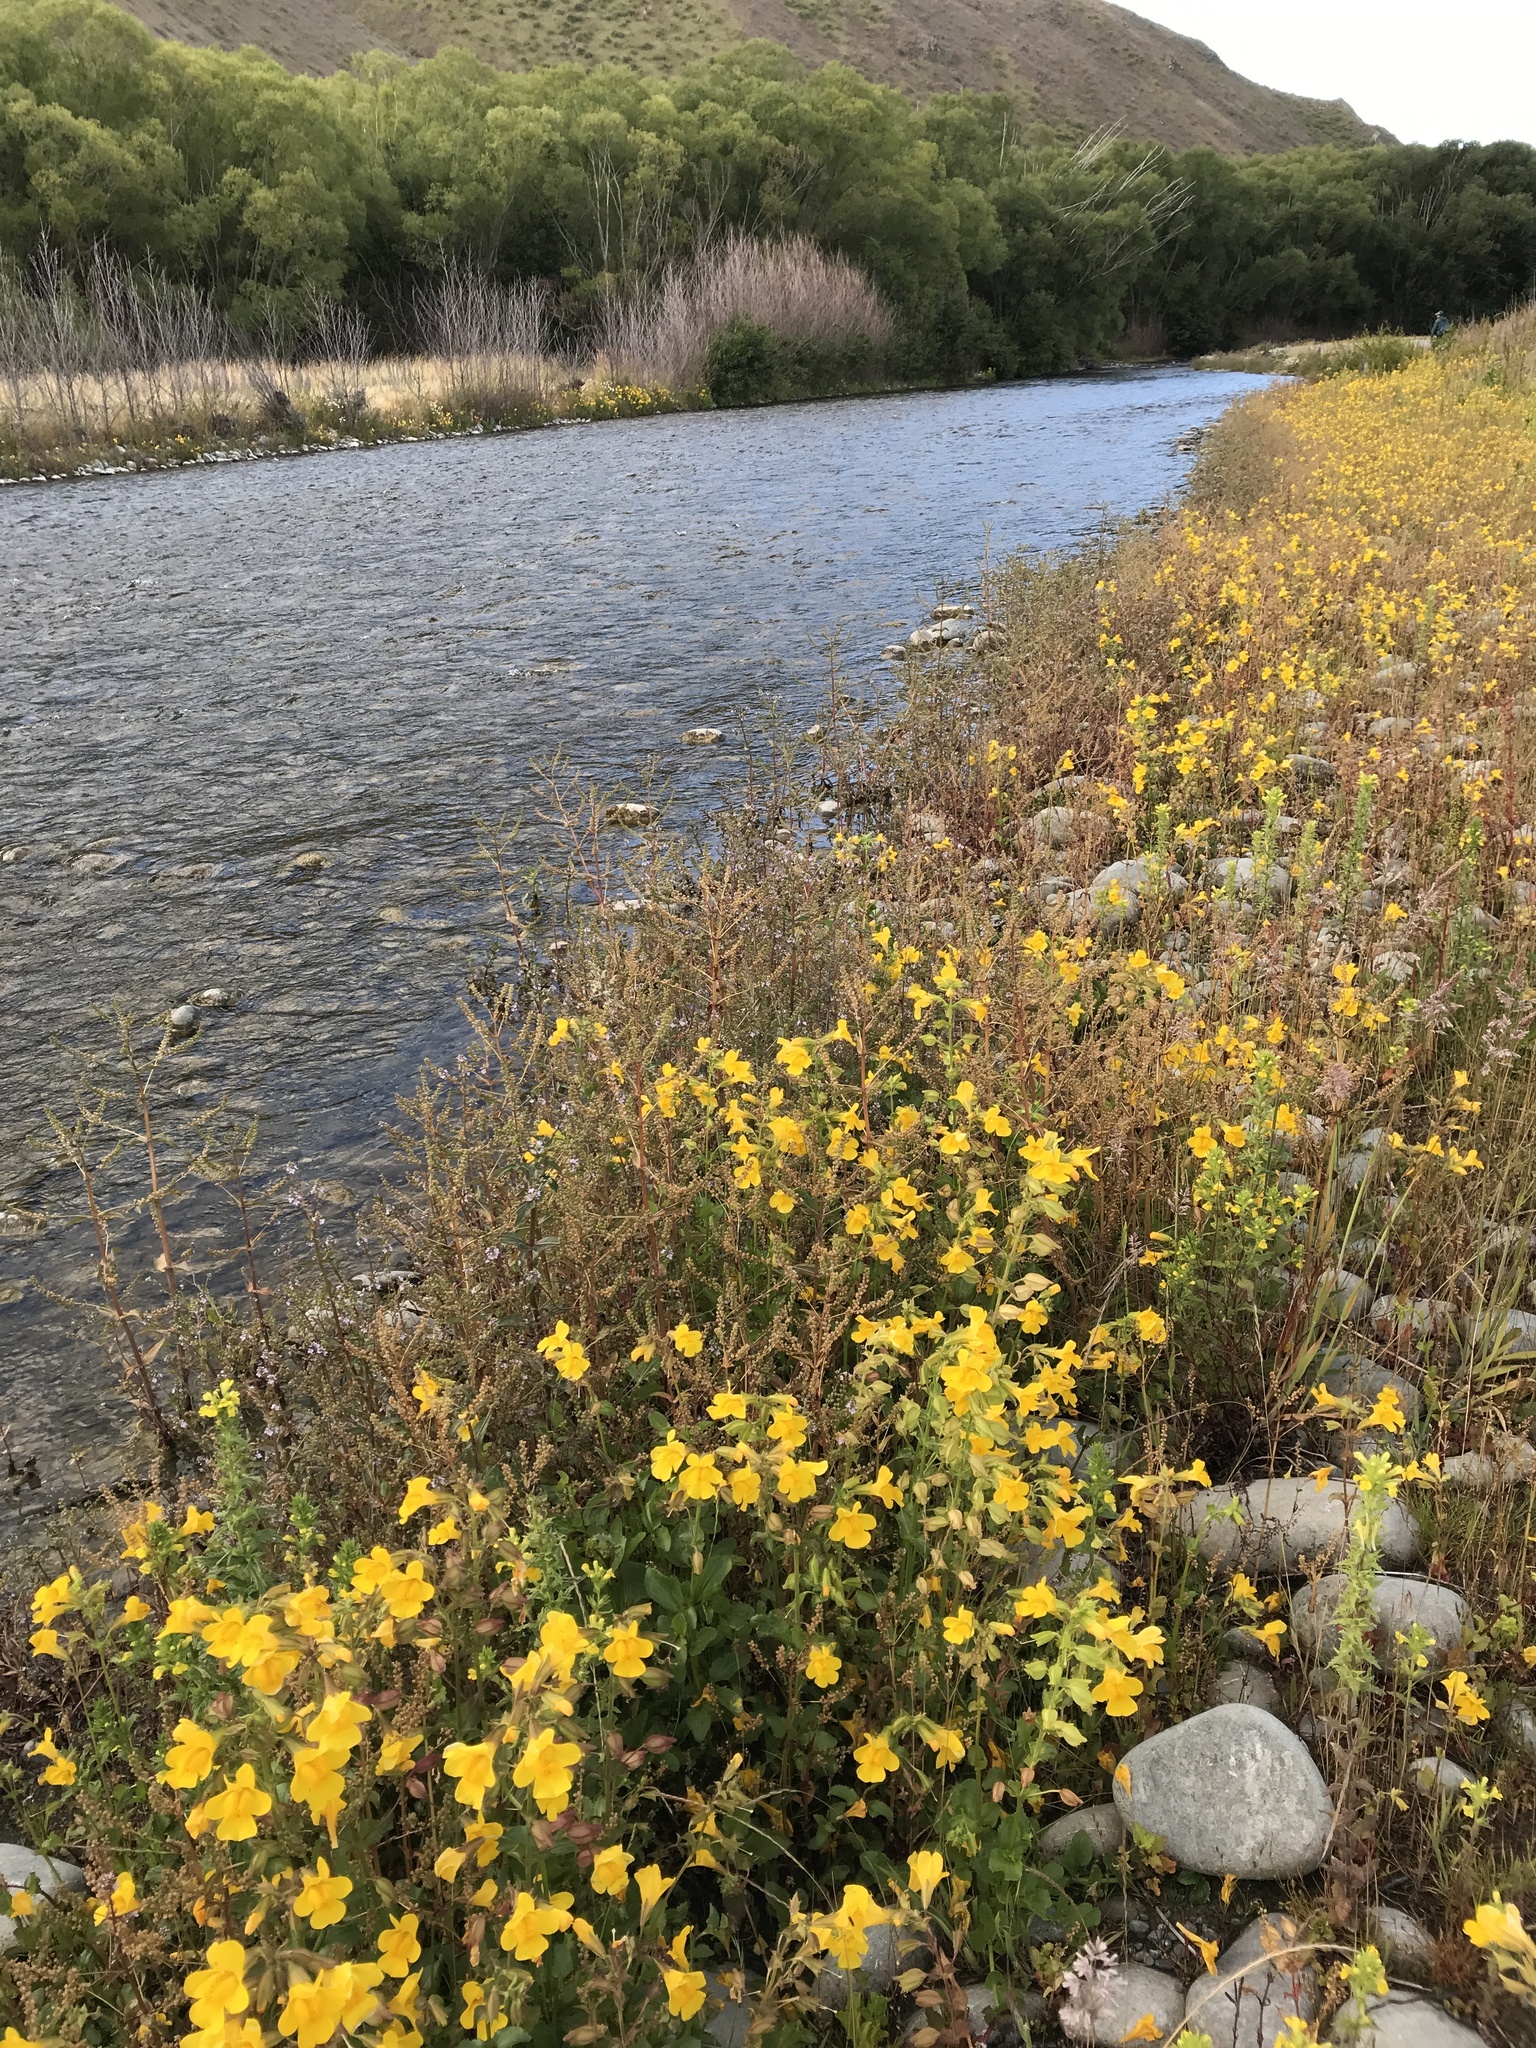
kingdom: Plantae
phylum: Tracheophyta
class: Magnoliopsida
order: Lamiales
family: Phrymaceae
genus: Erythranthe
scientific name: Erythranthe guttata
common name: Monkeyflower
